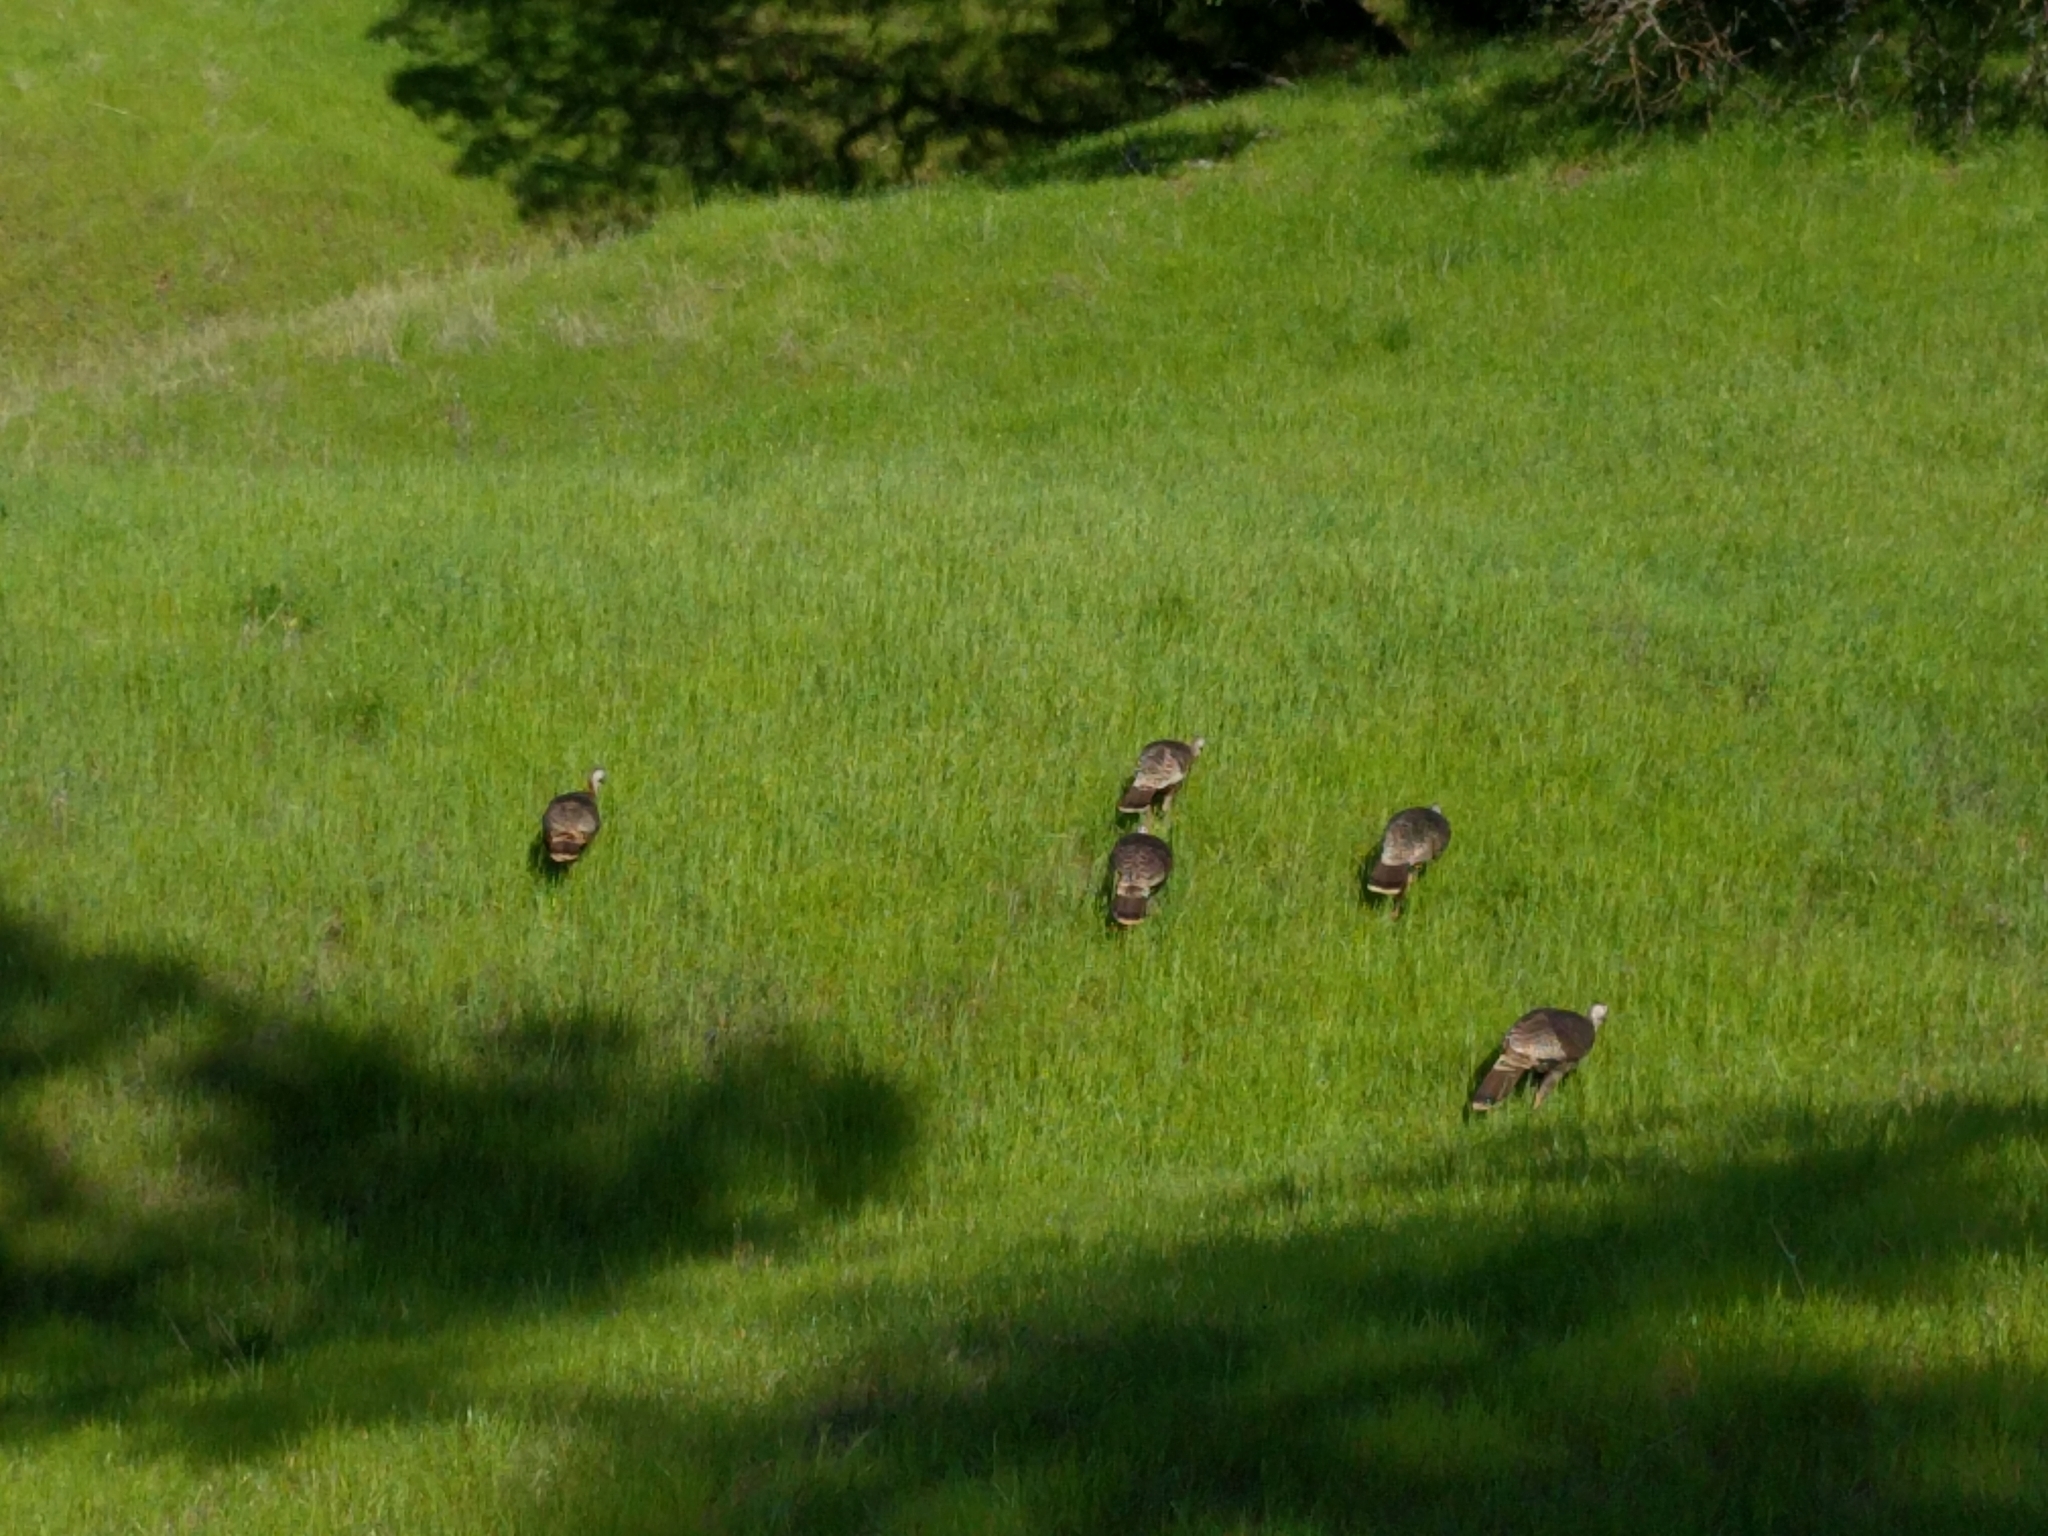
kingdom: Animalia
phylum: Chordata
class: Aves
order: Galliformes
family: Phasianidae
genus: Meleagris
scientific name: Meleagris gallopavo
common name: Wild turkey
